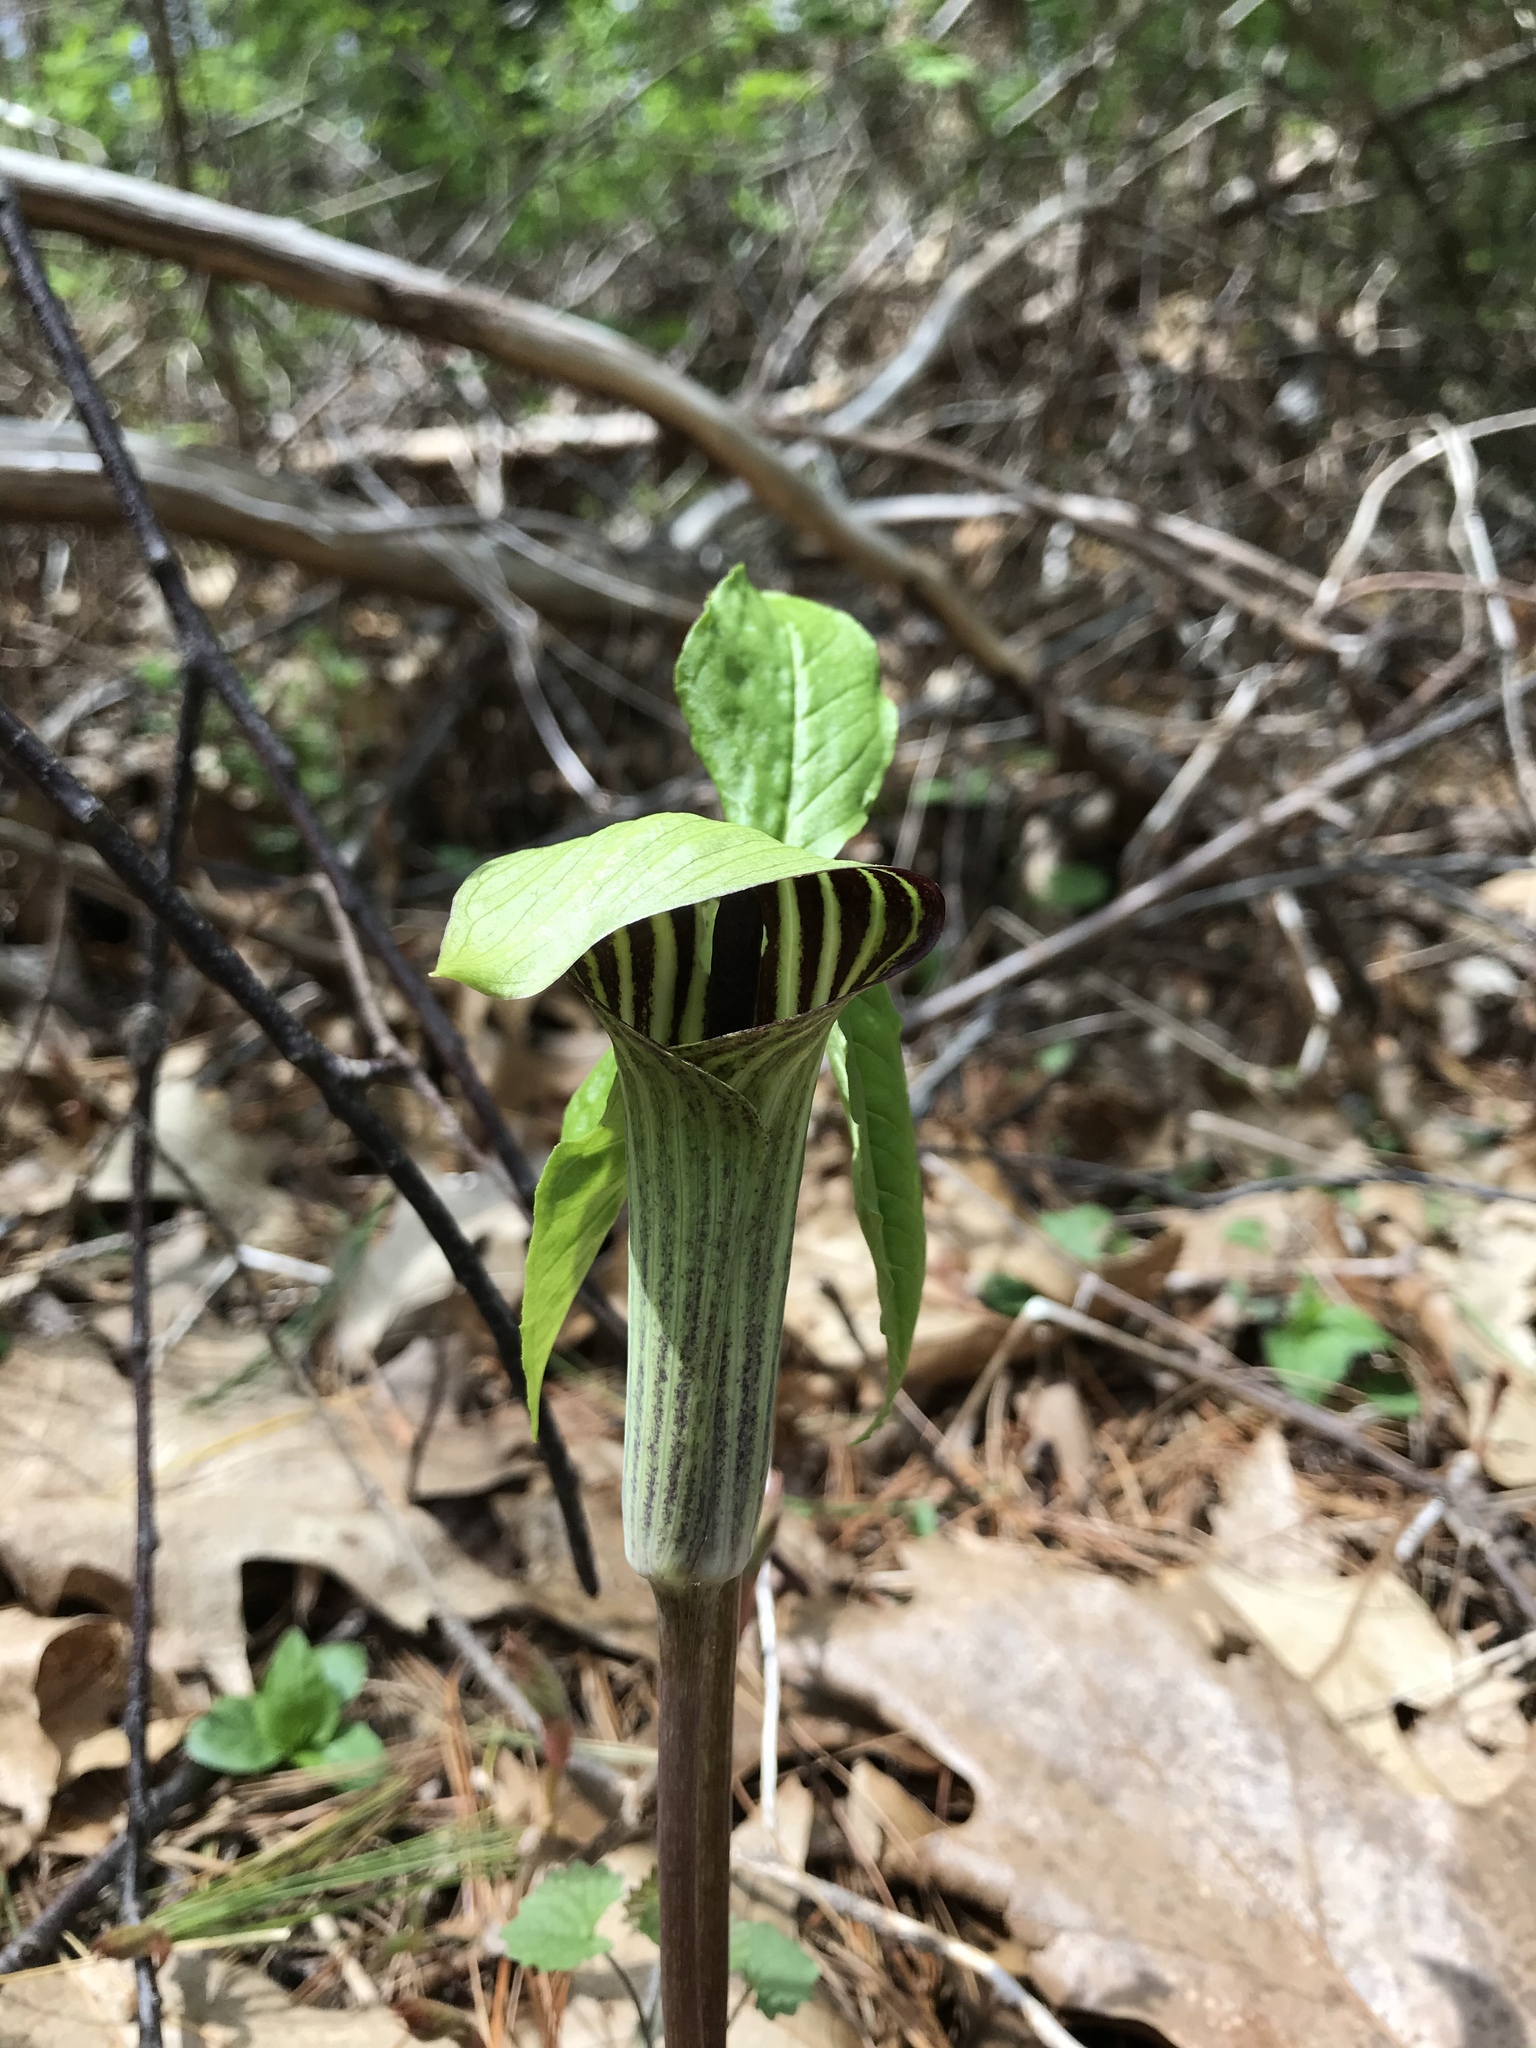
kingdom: Plantae
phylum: Tracheophyta
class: Liliopsida
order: Alismatales
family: Araceae
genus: Arisaema
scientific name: Arisaema triphyllum
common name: Jack-in-the-pulpit
